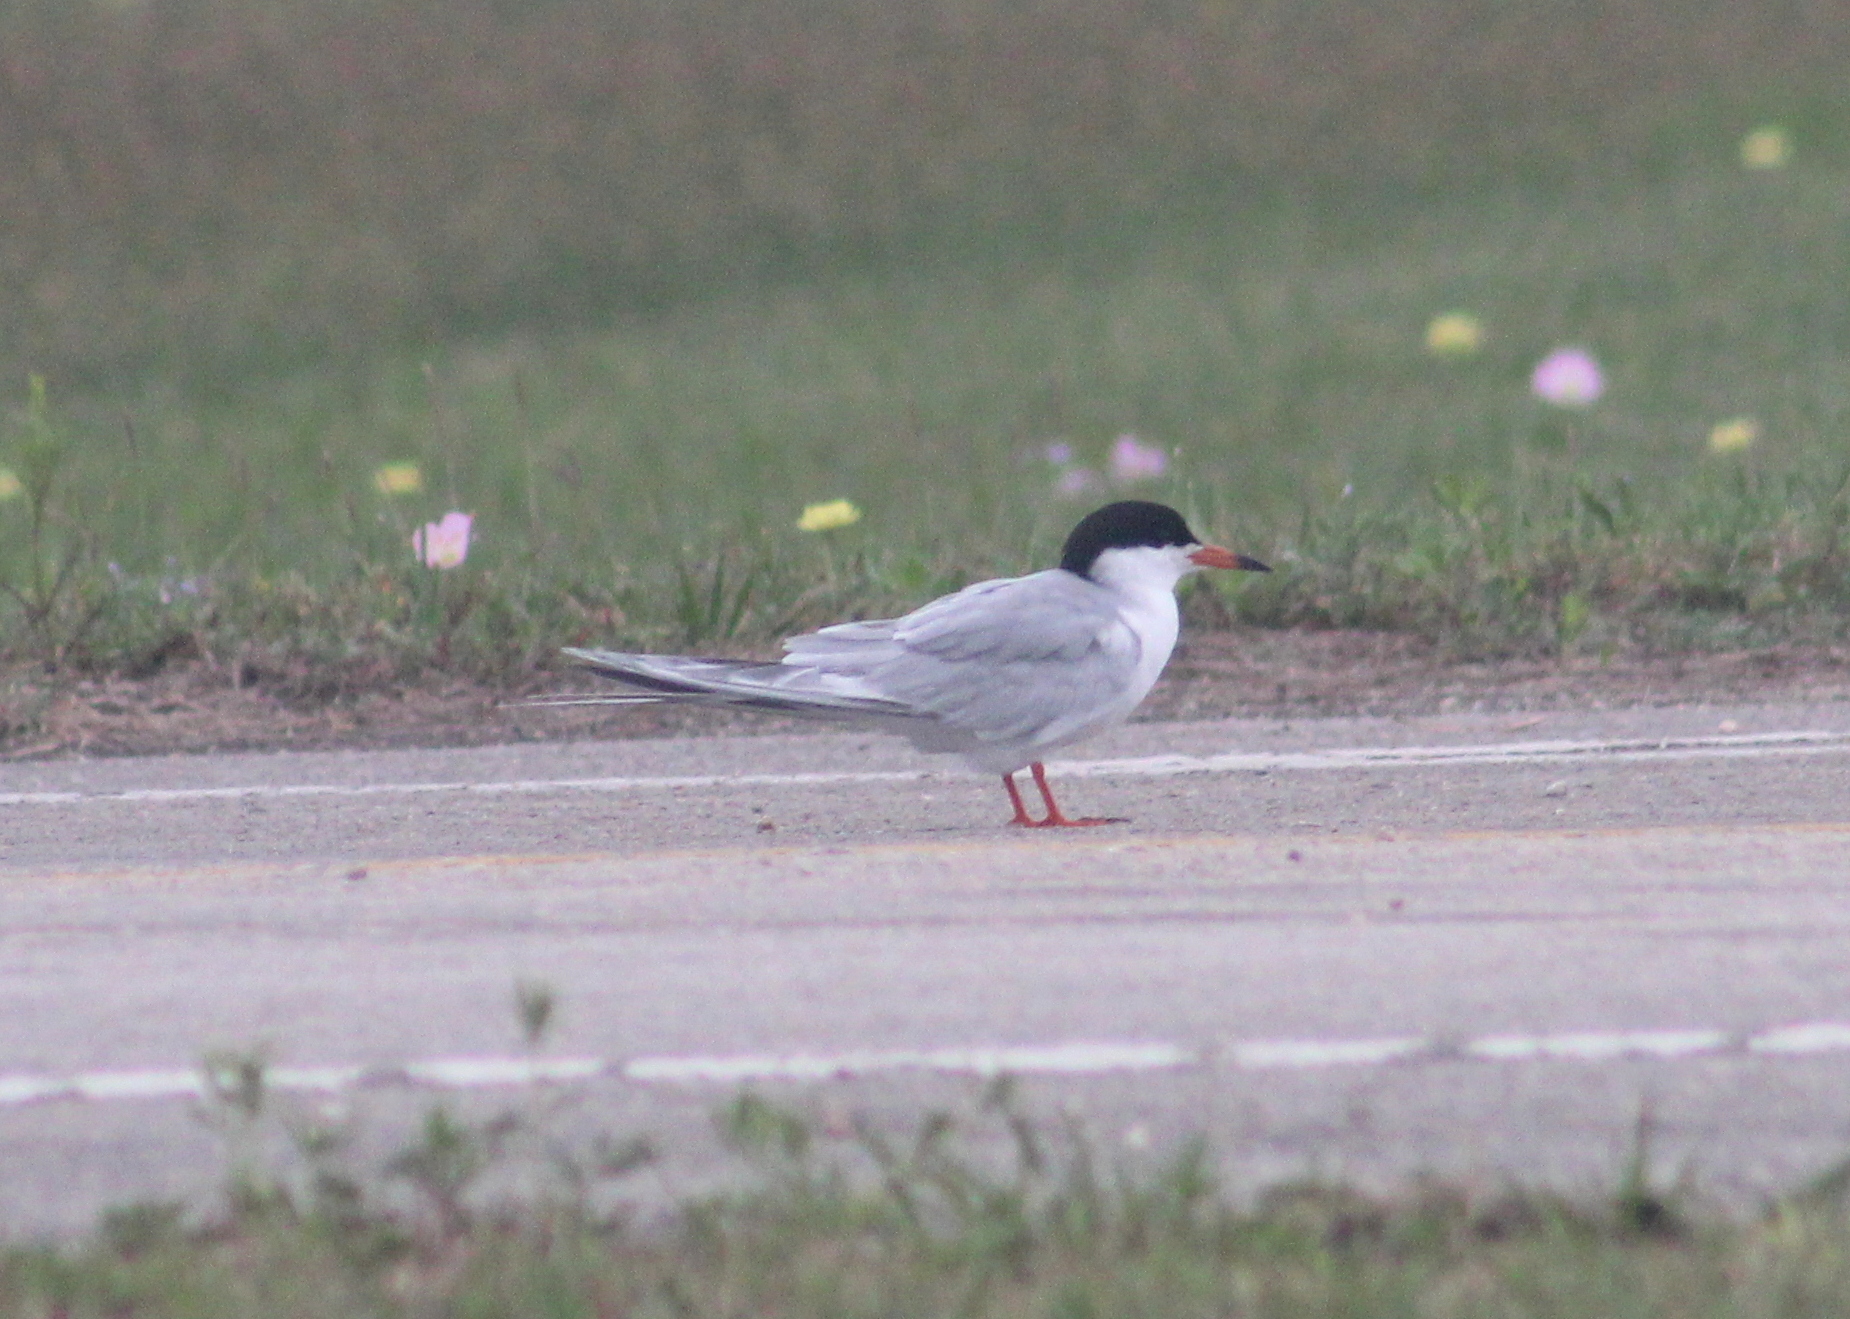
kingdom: Animalia
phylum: Chordata
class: Aves
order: Charadriiformes
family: Laridae
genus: Sterna
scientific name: Sterna forsteri
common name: Forster's tern
